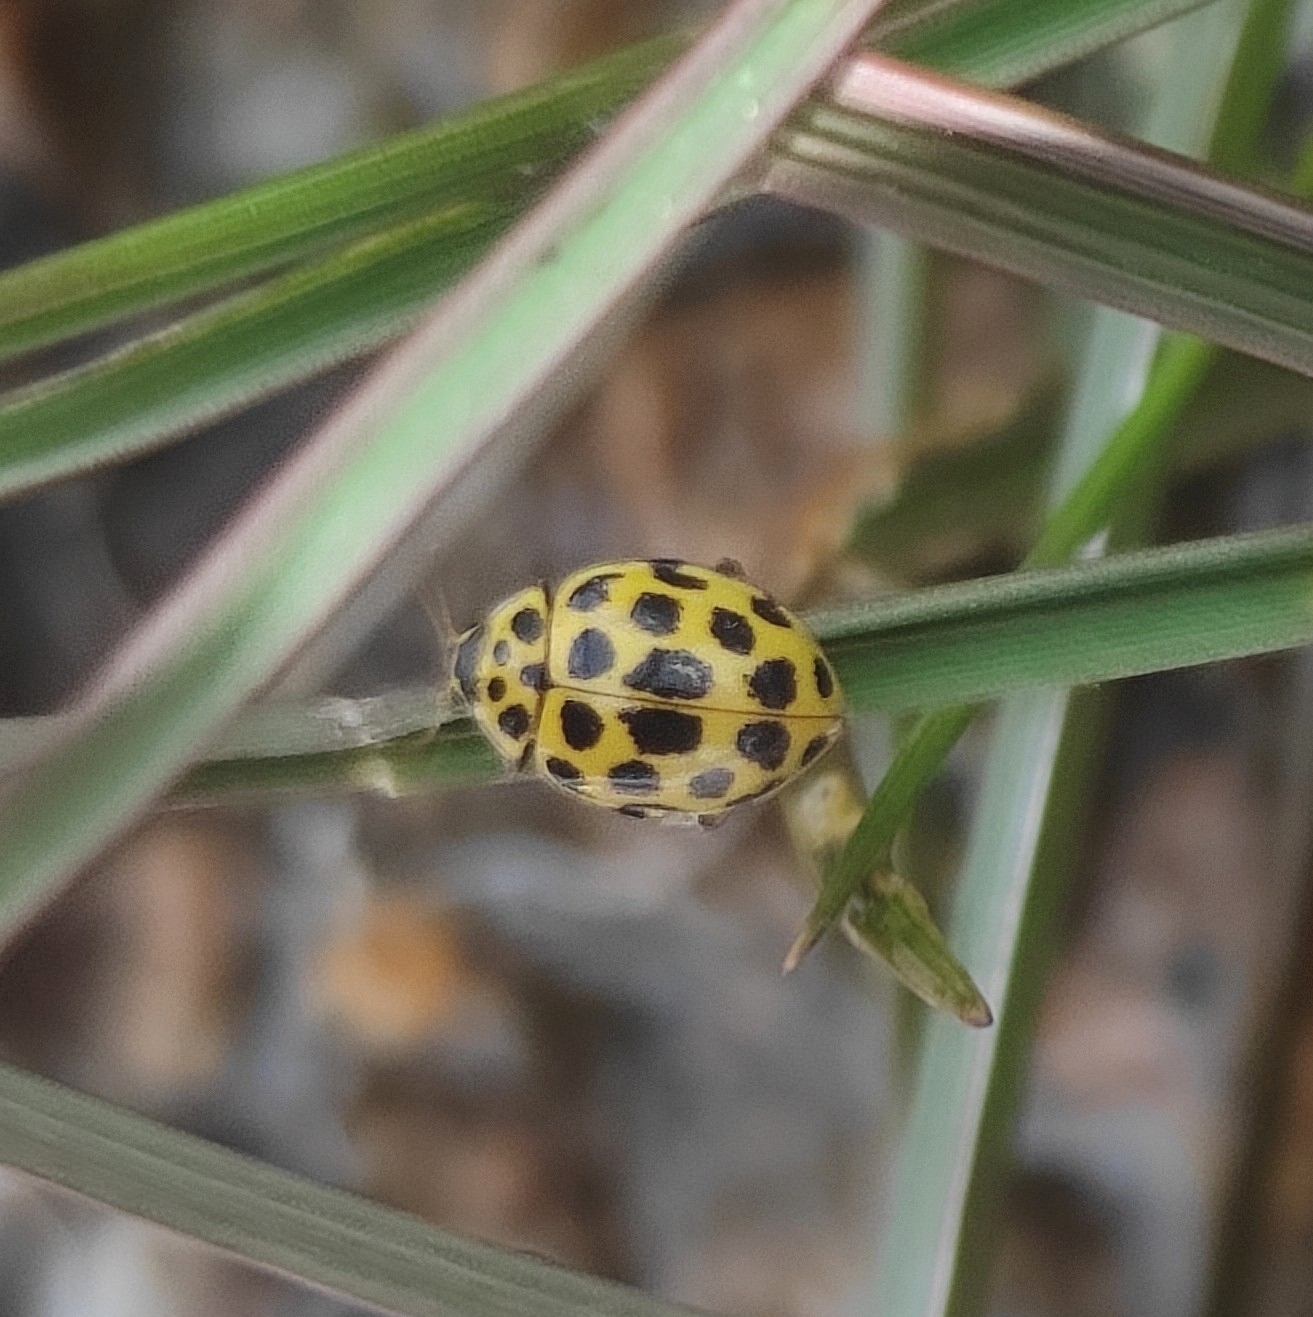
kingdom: Animalia
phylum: Arthropoda
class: Insecta
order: Coleoptera
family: Coccinellidae
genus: Psyllobora
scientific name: Psyllobora vigintiduopunctata
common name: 22-spot ladybird
